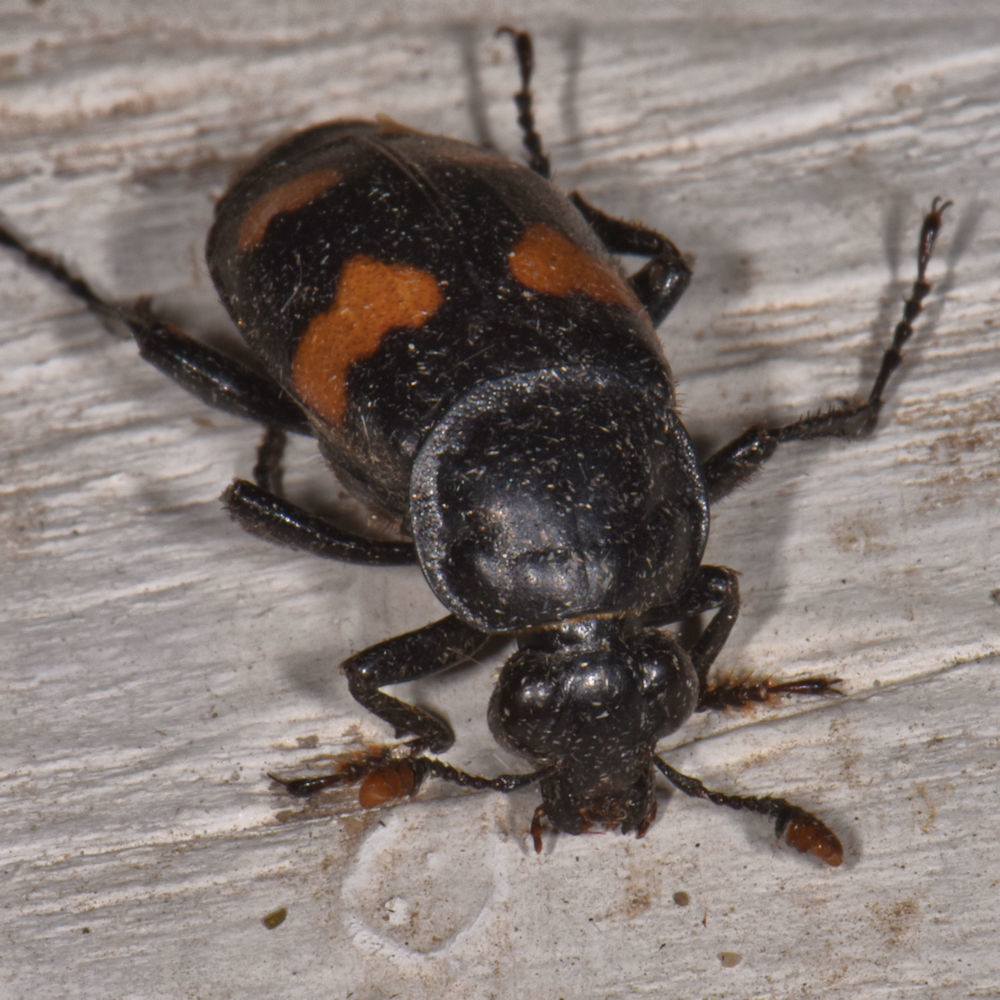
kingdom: Animalia
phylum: Arthropoda
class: Insecta
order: Coleoptera
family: Staphylinidae
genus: Nicrophorus
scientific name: Nicrophorus orbicollis
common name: Roundneck sexton beetle
